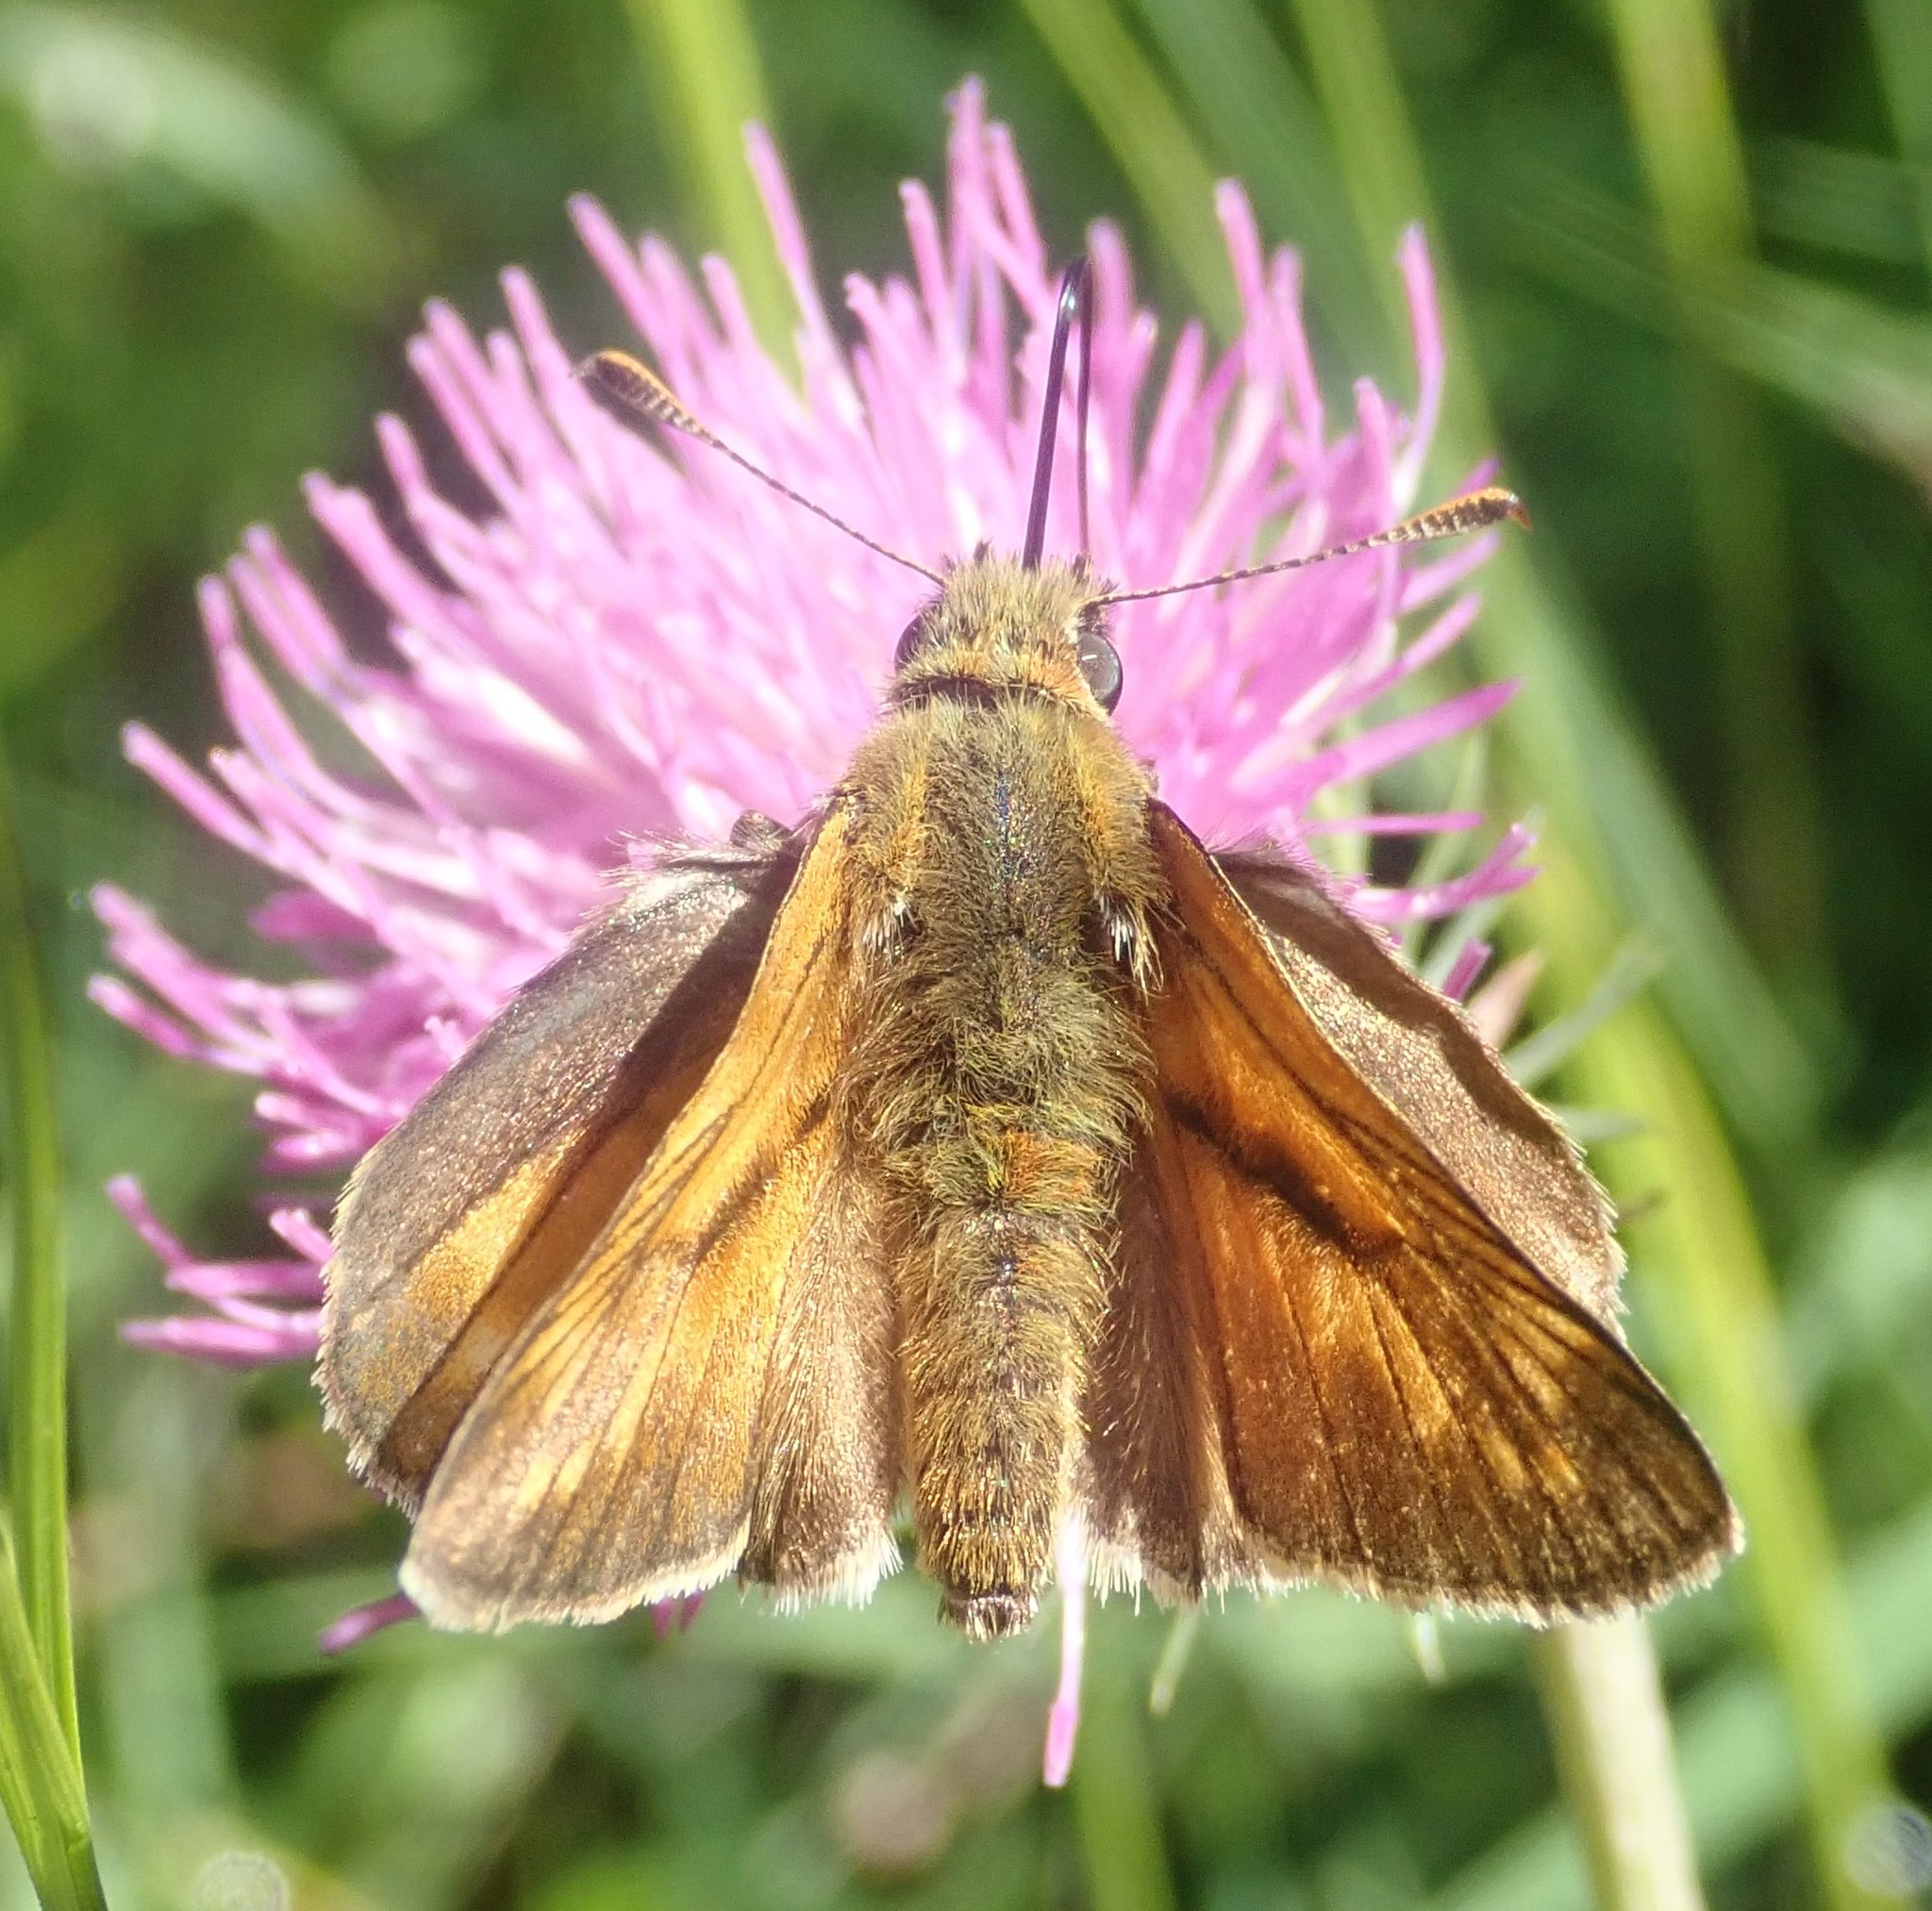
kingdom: Animalia
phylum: Arthropoda
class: Insecta
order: Lepidoptera
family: Hesperiidae
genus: Ochlodes
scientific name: Ochlodes venata
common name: Large skipper
